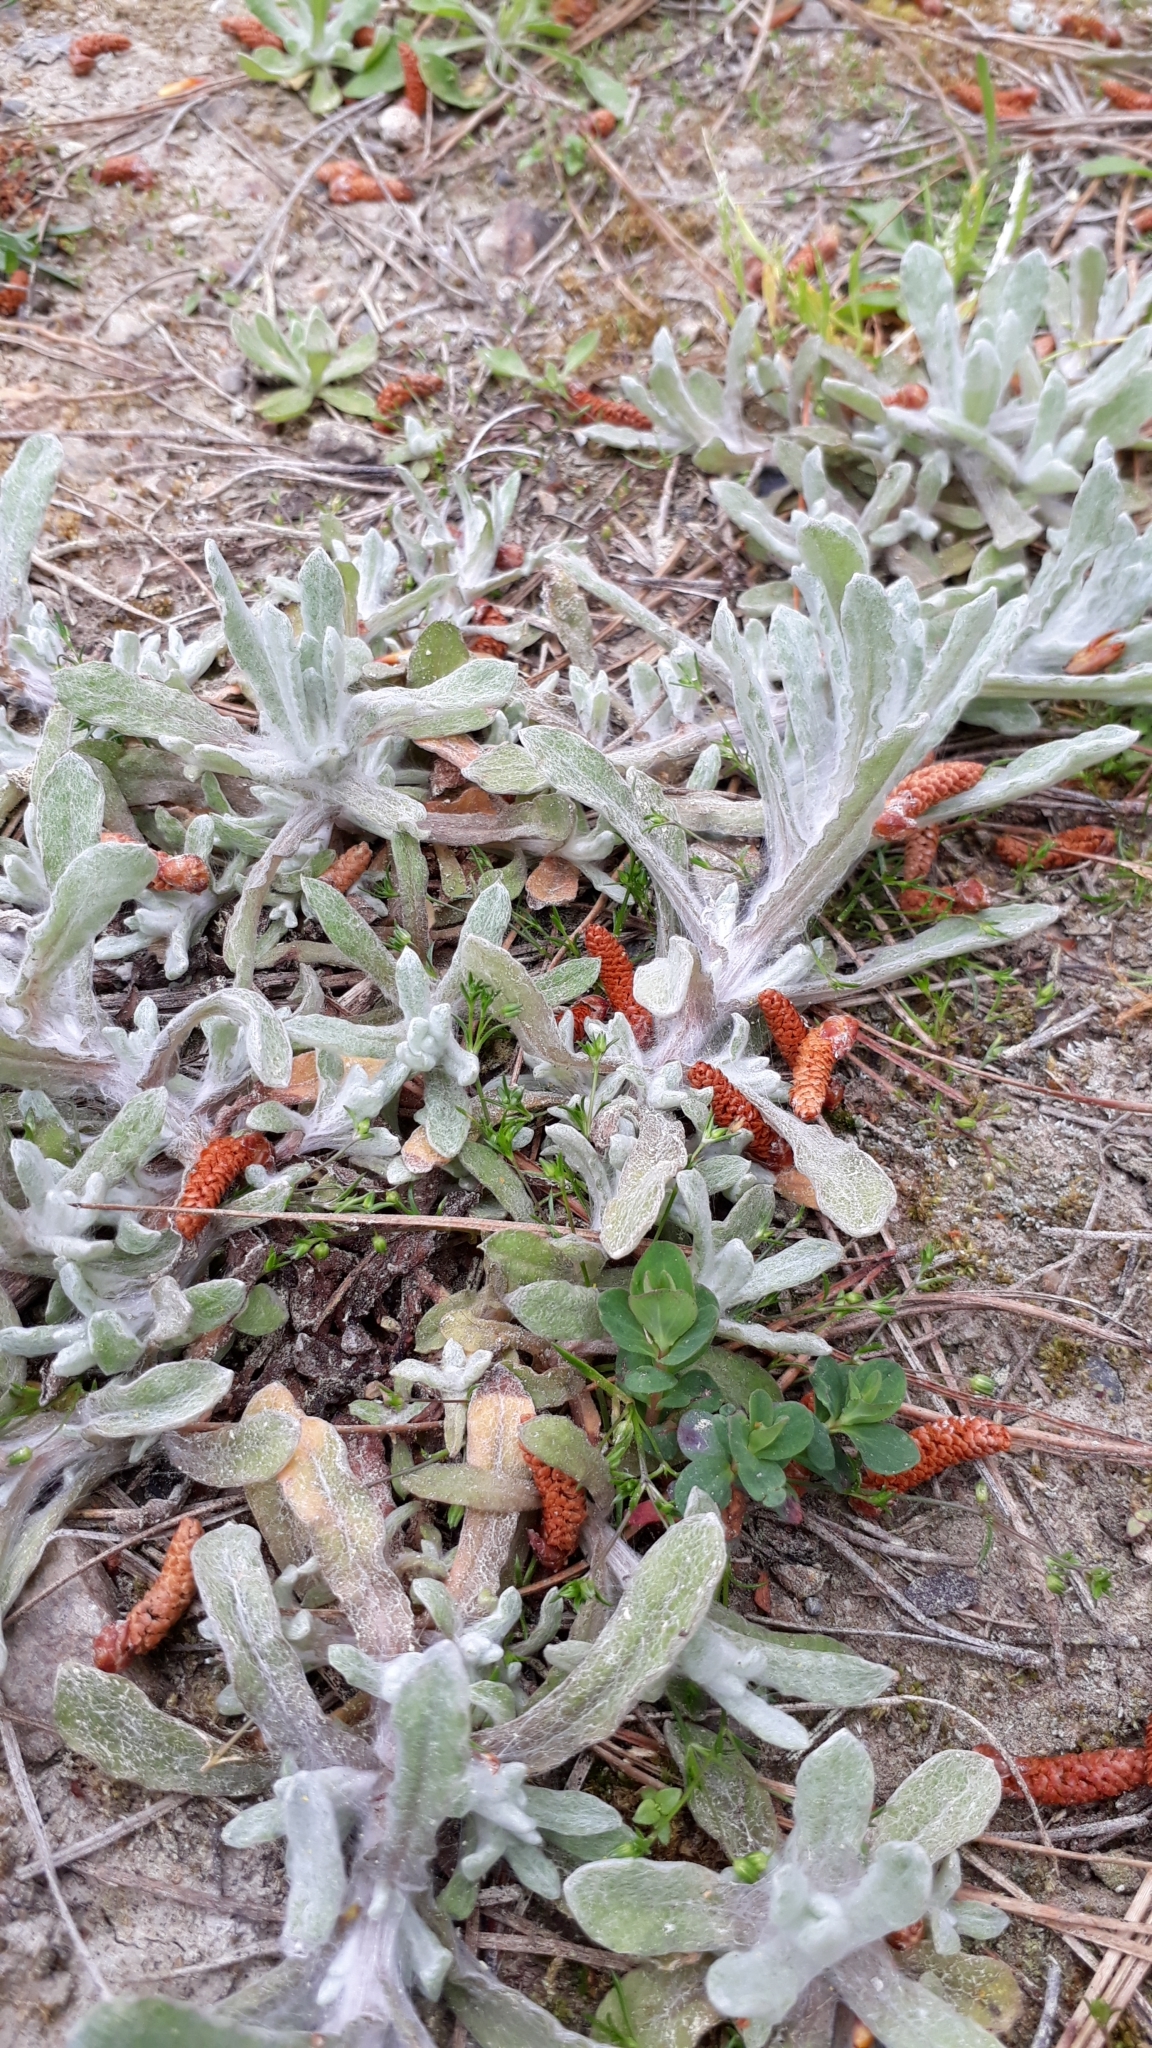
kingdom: Plantae
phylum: Tracheophyta
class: Magnoliopsida
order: Asterales
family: Asteraceae
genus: Helichrysum
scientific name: Helichrysum luteoalbum
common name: Daisy
